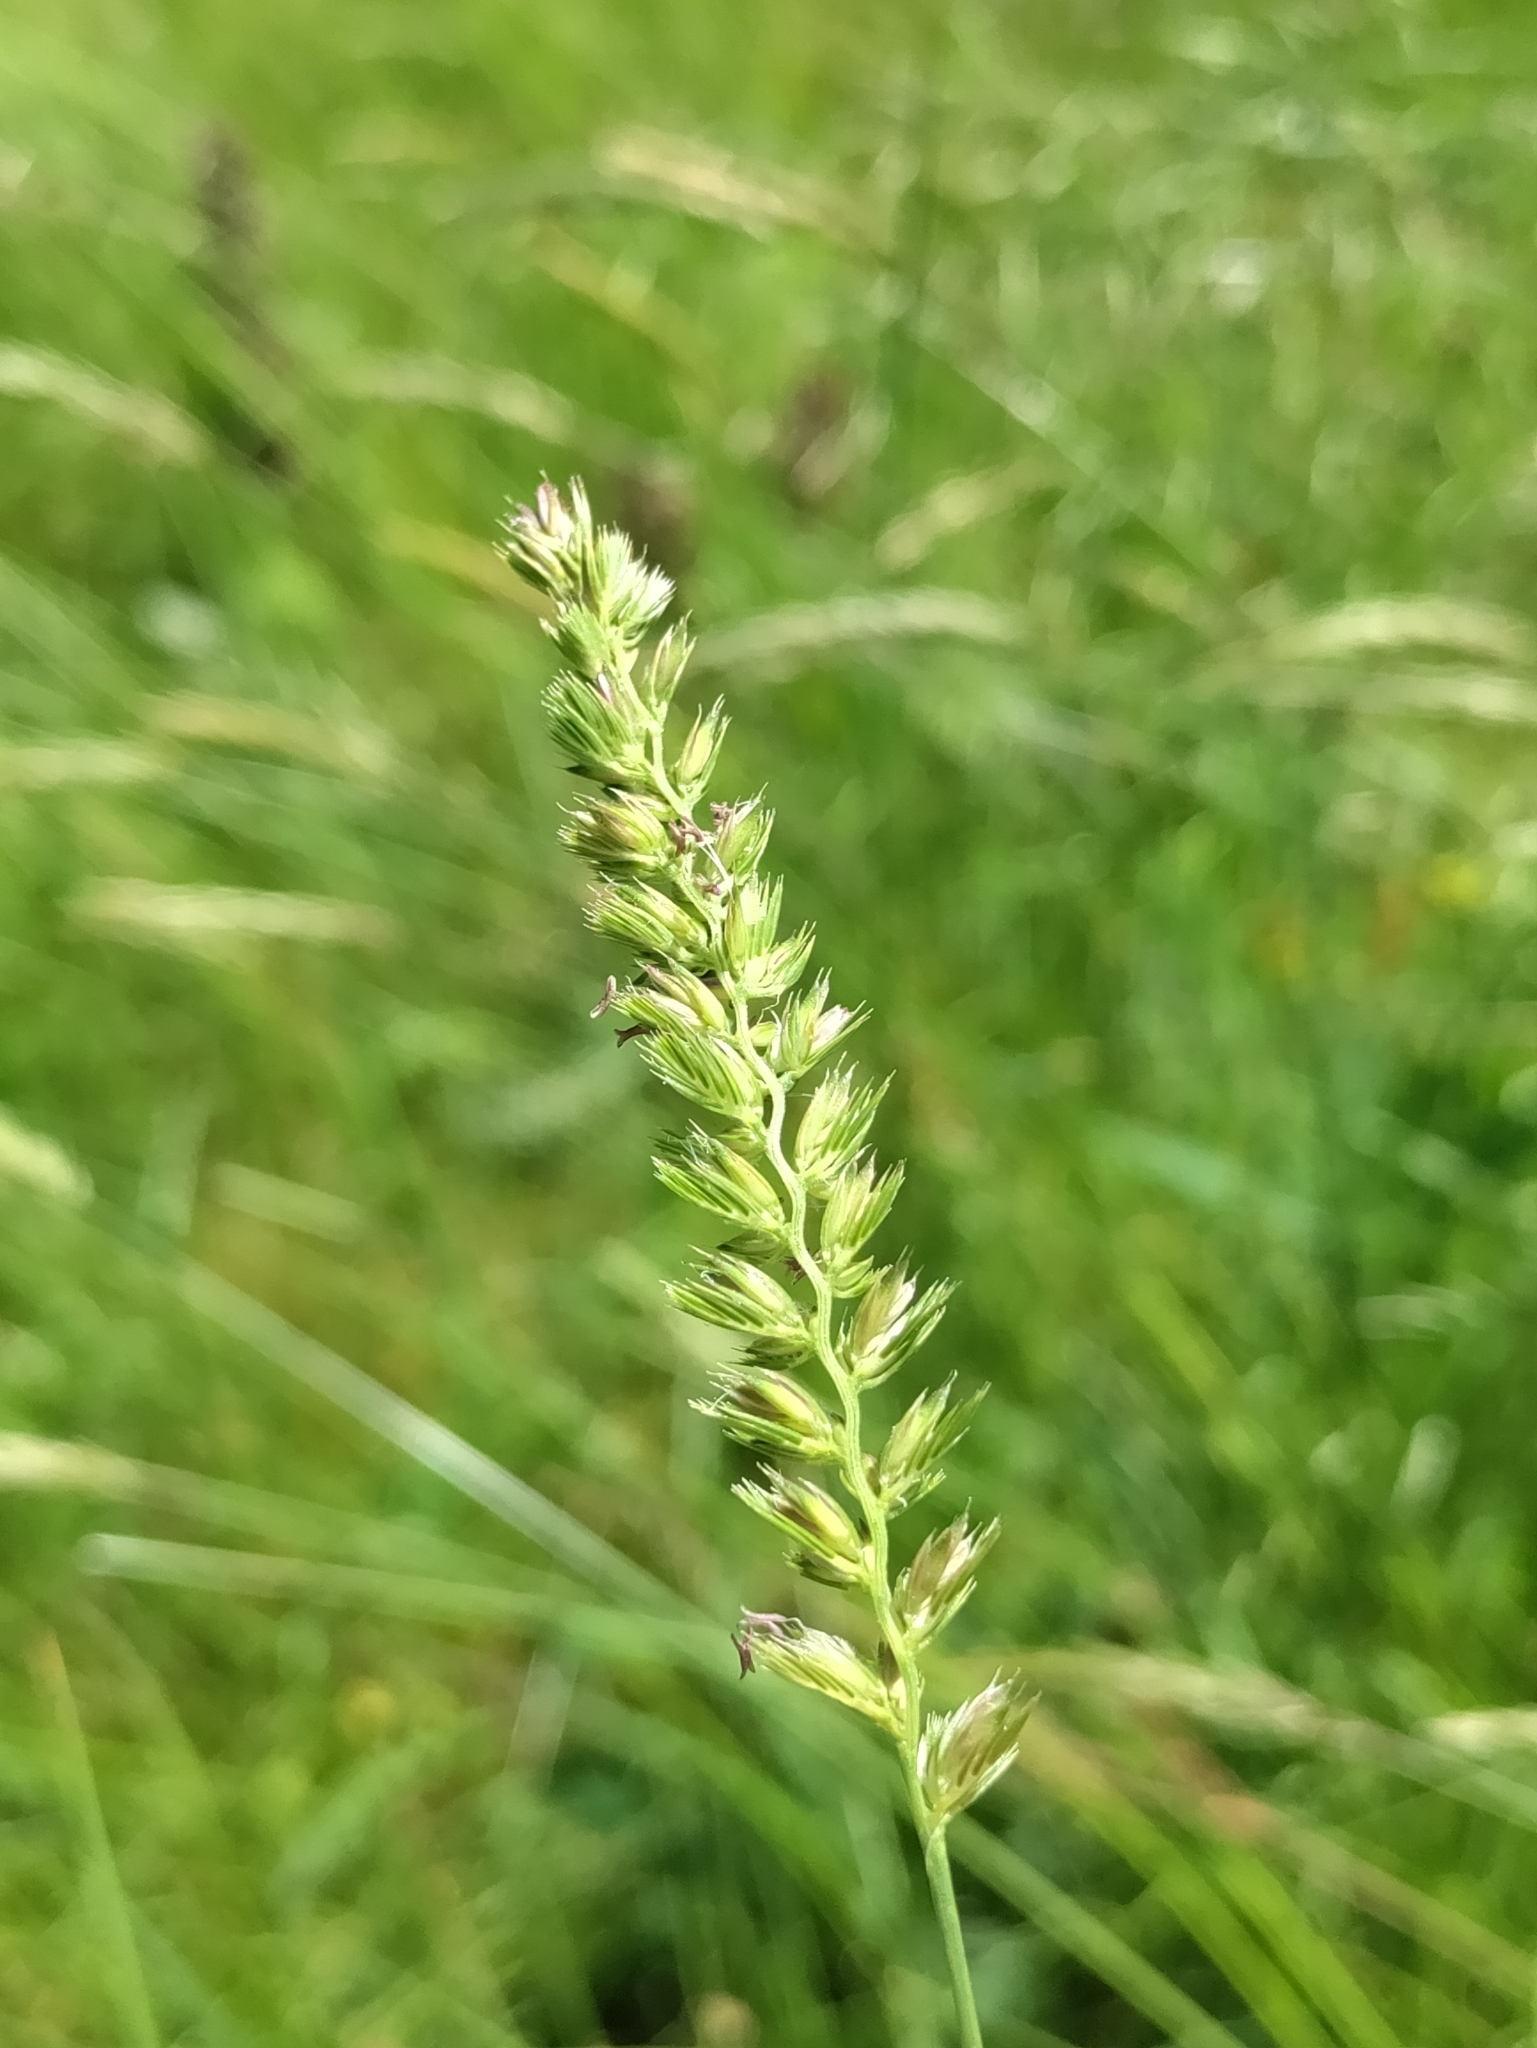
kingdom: Plantae
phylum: Tracheophyta
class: Liliopsida
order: Poales
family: Poaceae
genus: Cynosurus
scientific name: Cynosurus cristatus
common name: Crested dog's-tail
